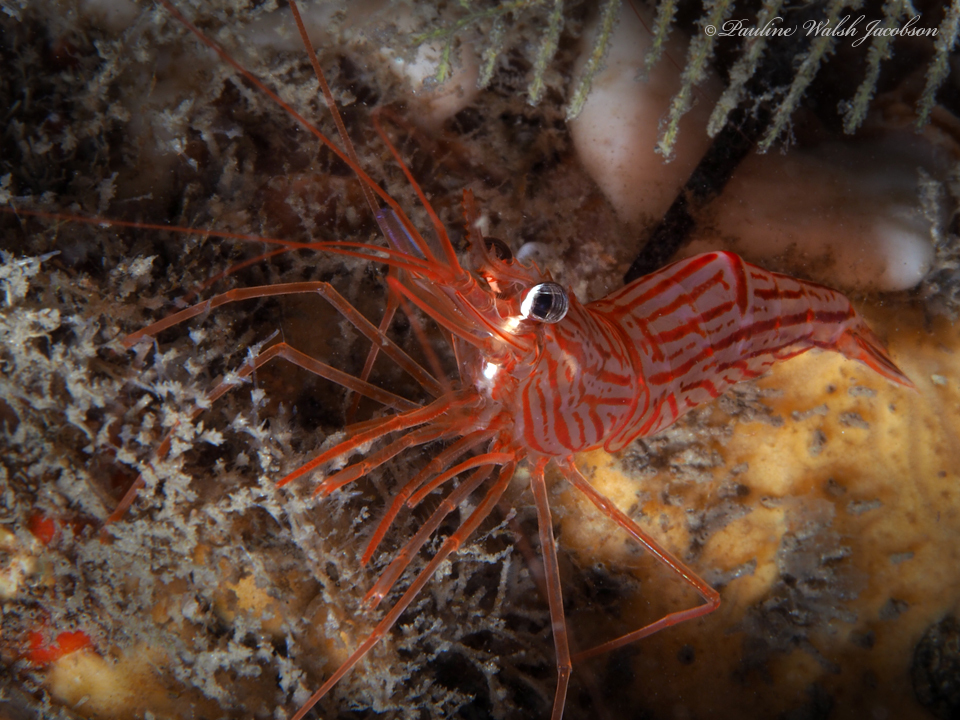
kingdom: Animalia
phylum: Arthropoda
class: Malacostraca
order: Decapoda
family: Lysmatidae
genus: Lysmata
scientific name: Lysmata rafa
